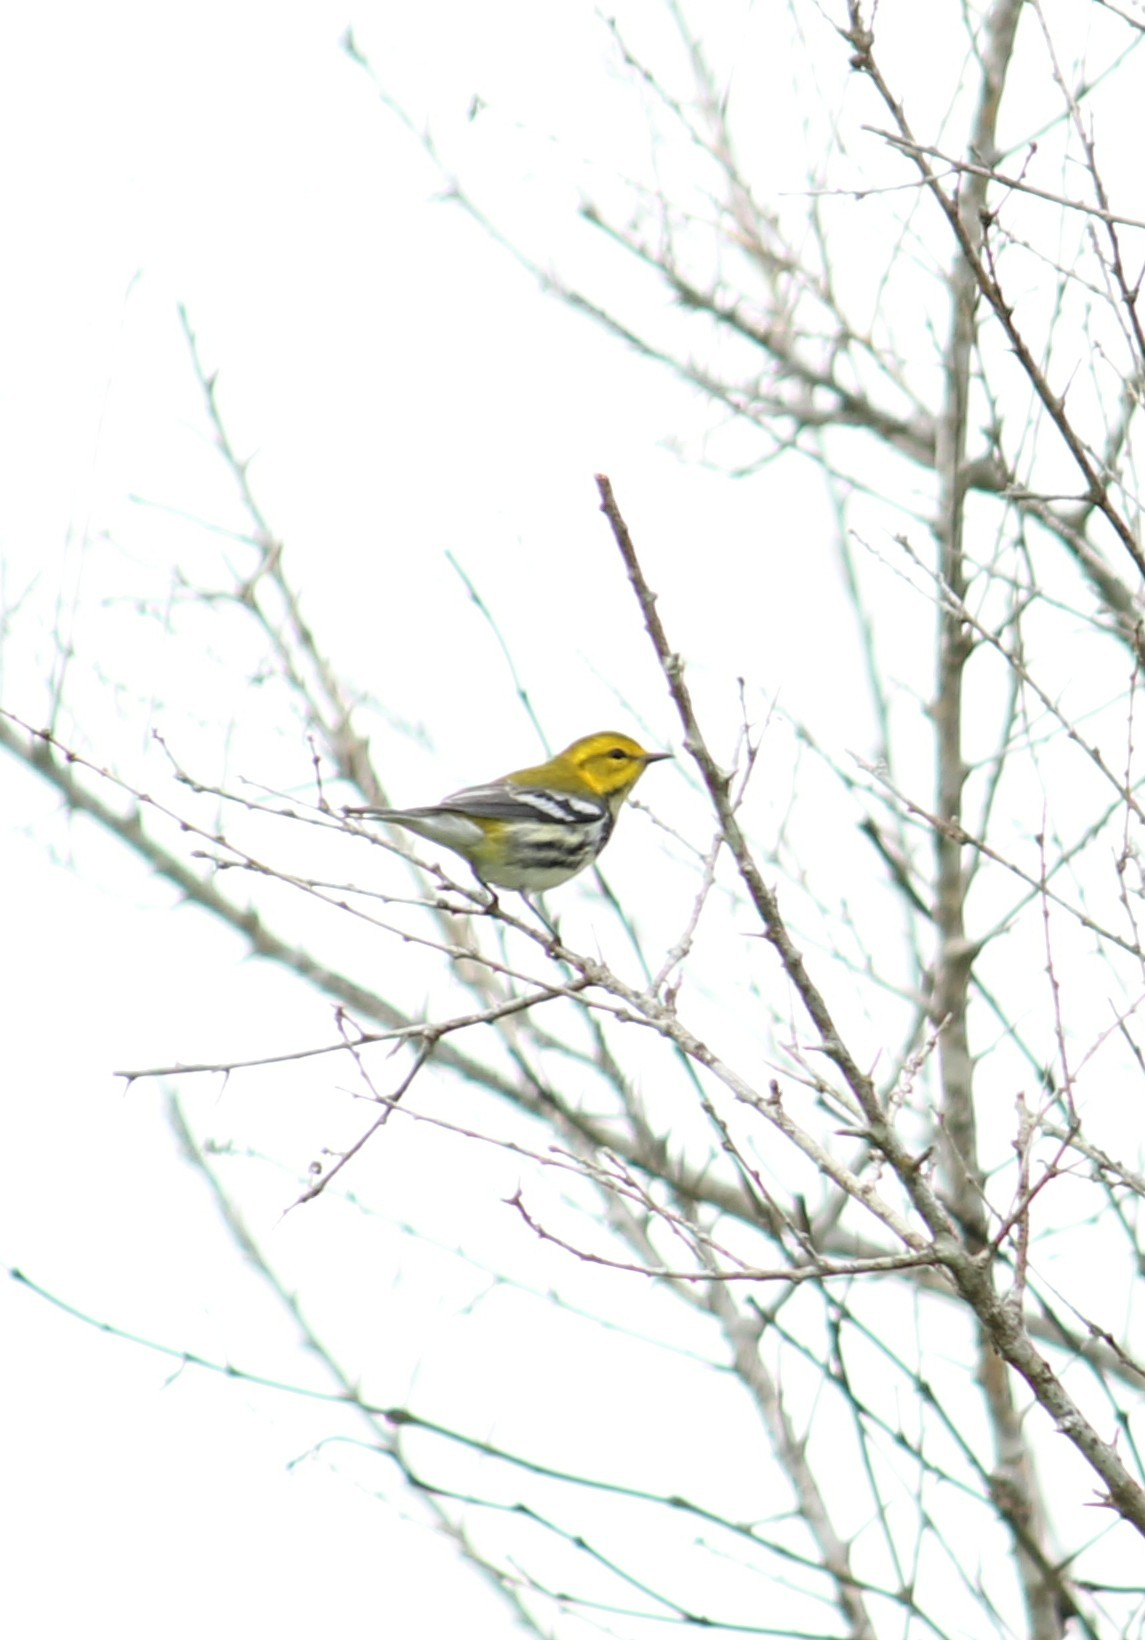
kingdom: Animalia
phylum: Chordata
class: Aves
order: Passeriformes
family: Parulidae
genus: Setophaga
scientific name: Setophaga virens
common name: Black-throated green warbler
